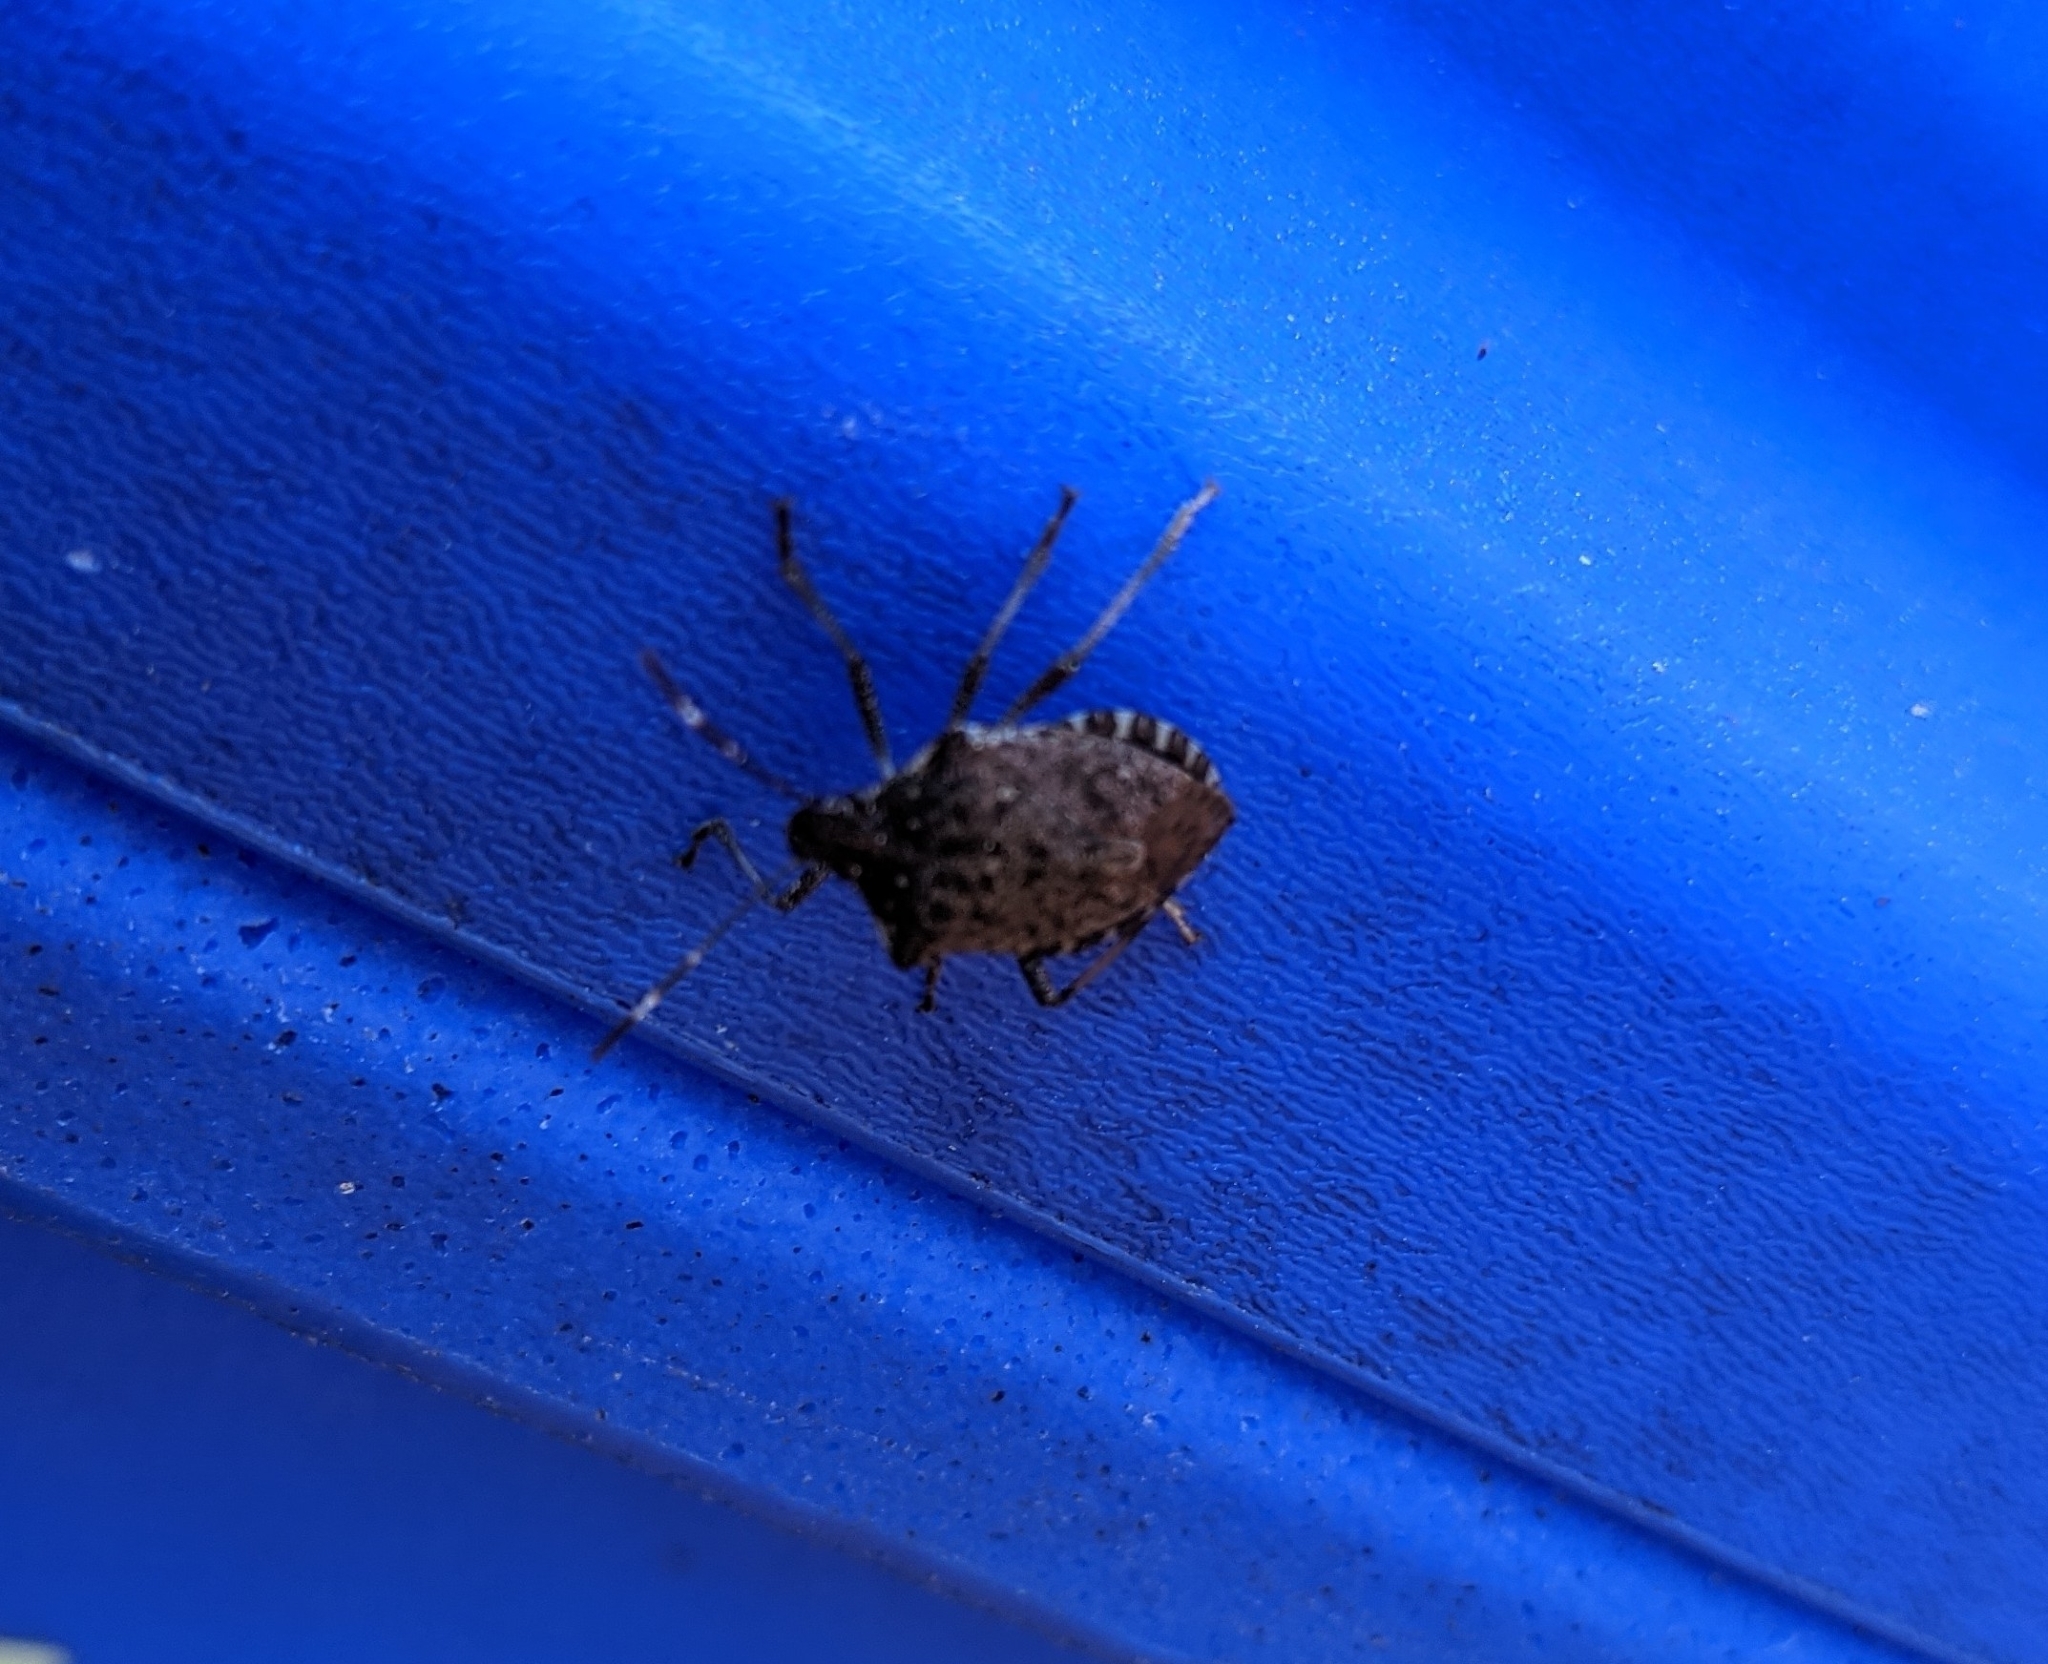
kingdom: Animalia
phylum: Arthropoda
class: Insecta
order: Hemiptera
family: Pentatomidae
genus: Halyomorpha
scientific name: Halyomorpha halys
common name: Brown marmorated stink bug
